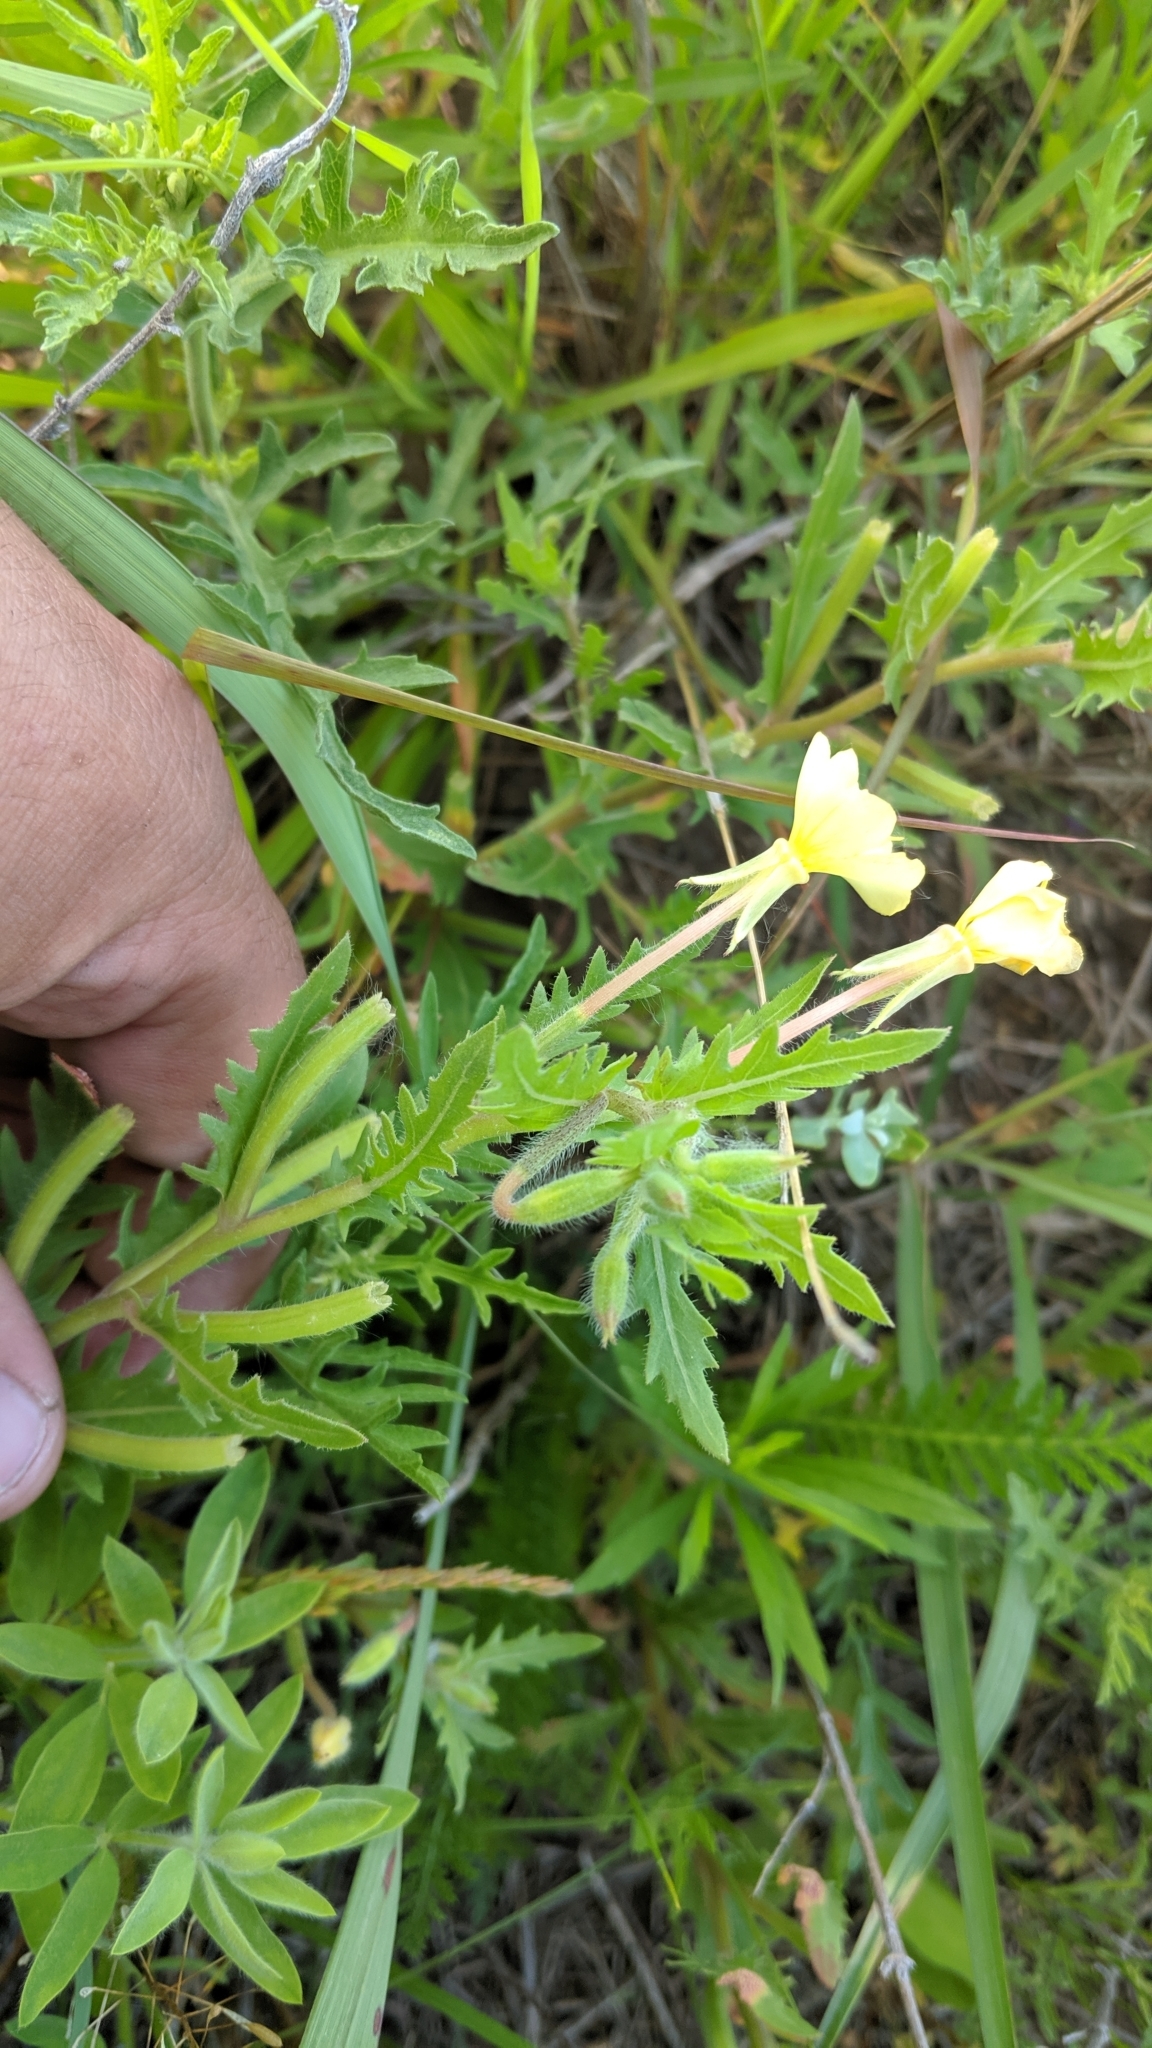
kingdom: Plantae
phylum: Tracheophyta
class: Magnoliopsida
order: Myrtales
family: Onagraceae
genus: Oenothera
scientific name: Oenothera laciniata
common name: Cut-leaved evening-primrose
